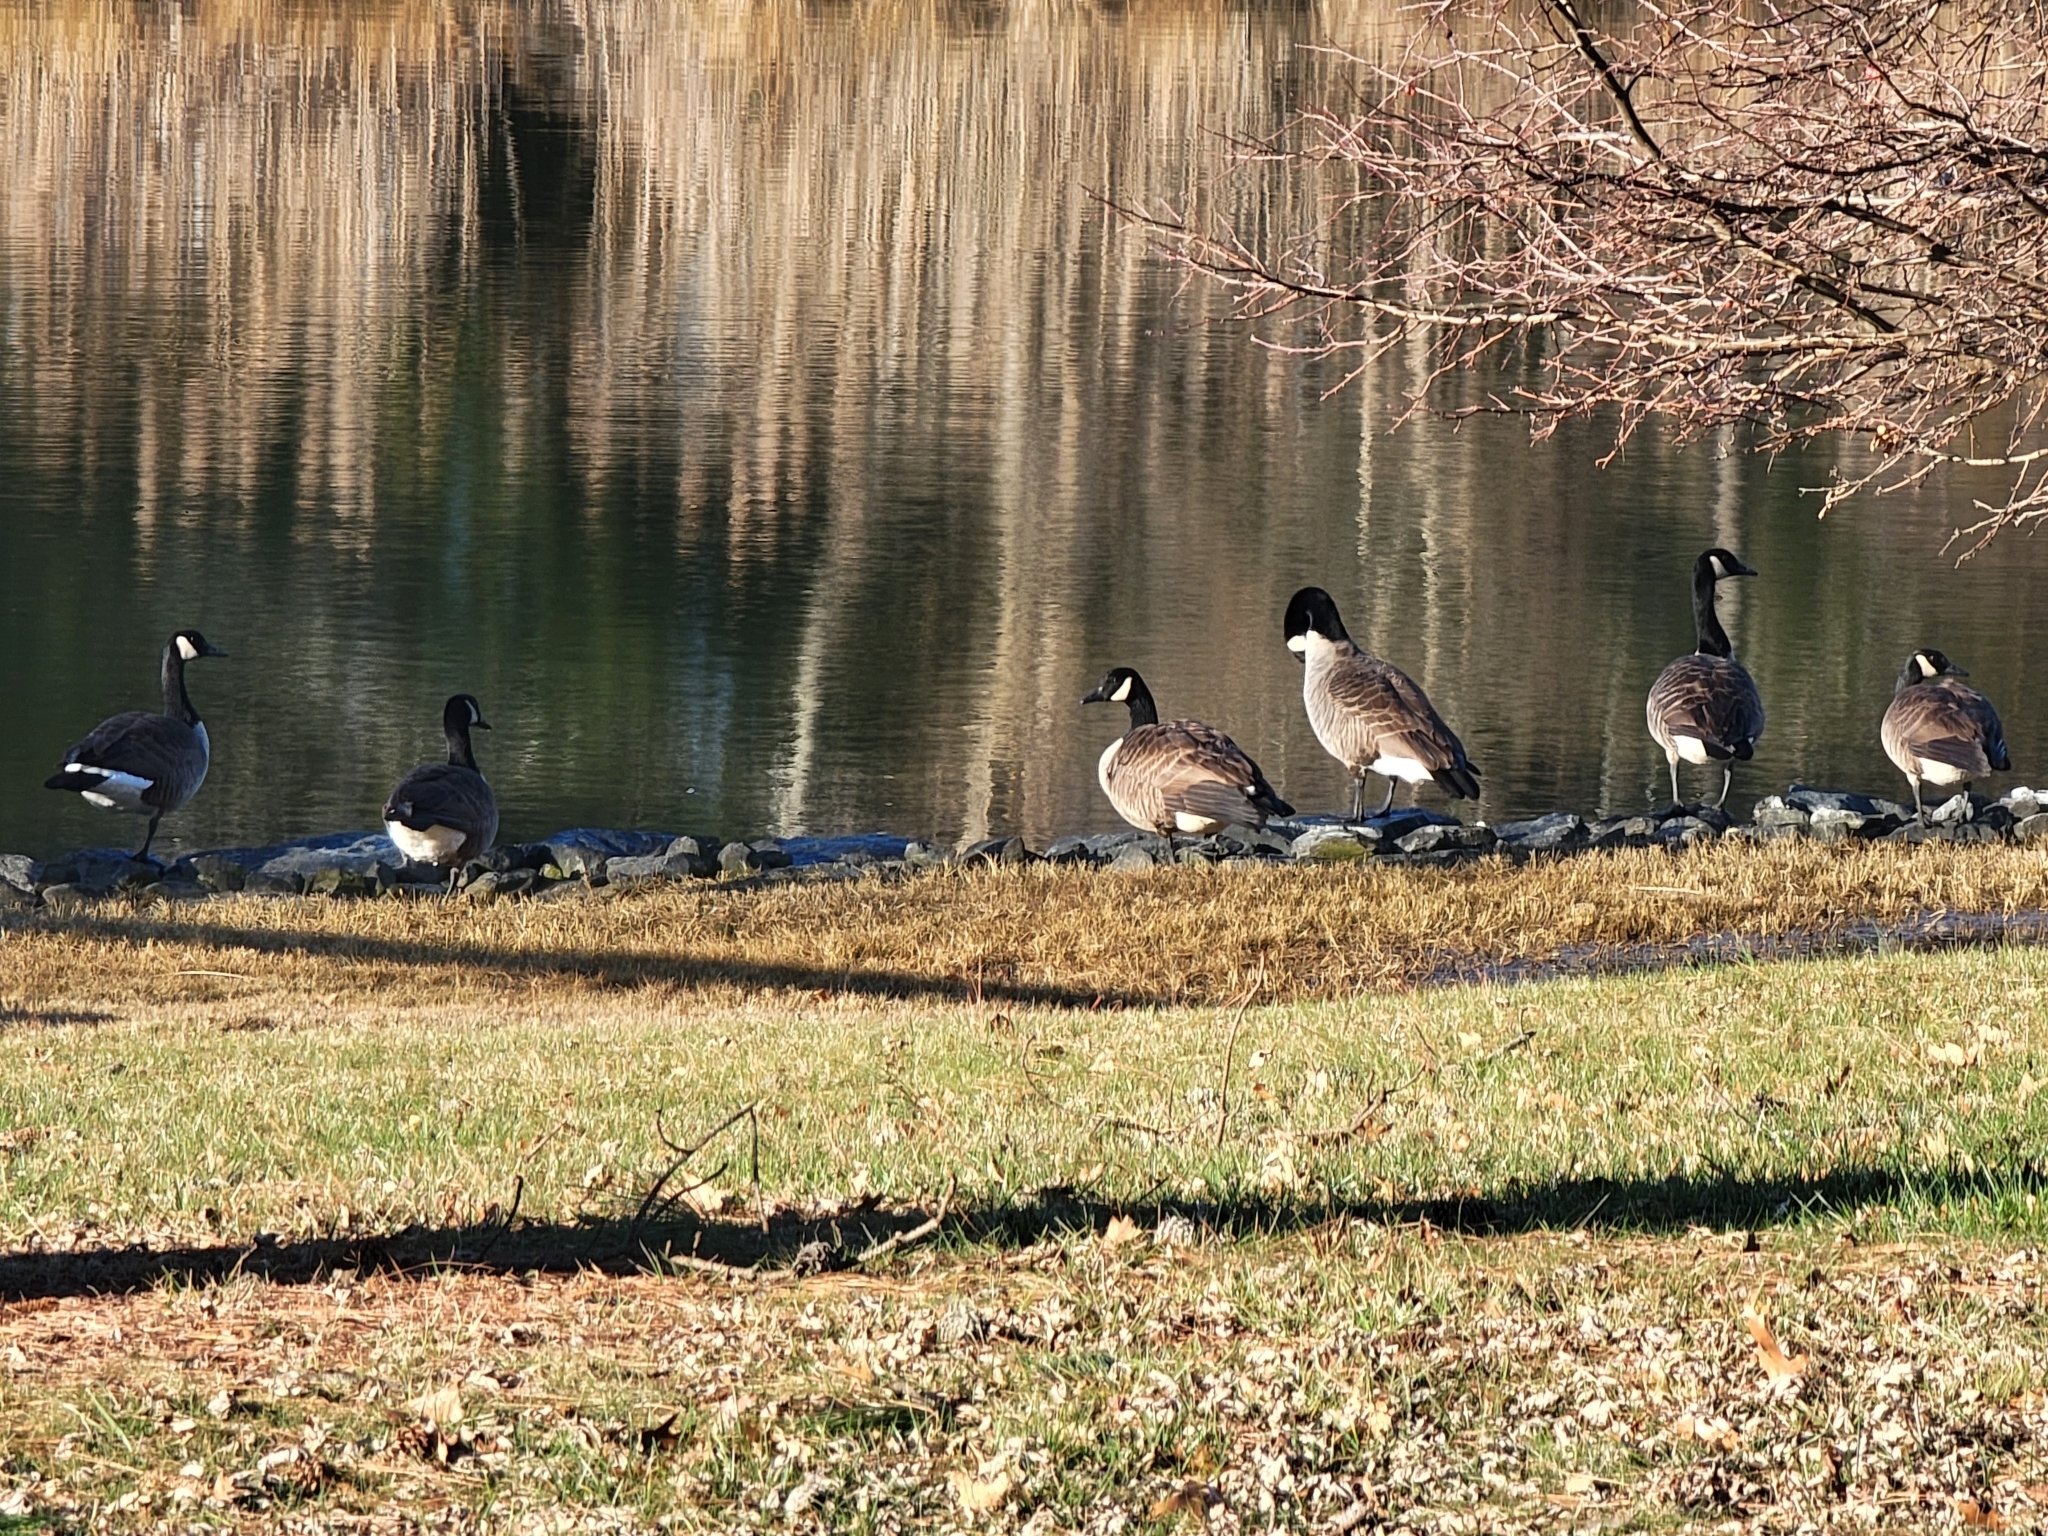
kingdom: Animalia
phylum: Chordata
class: Aves
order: Anseriformes
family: Anatidae
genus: Branta
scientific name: Branta canadensis
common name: Canada goose
